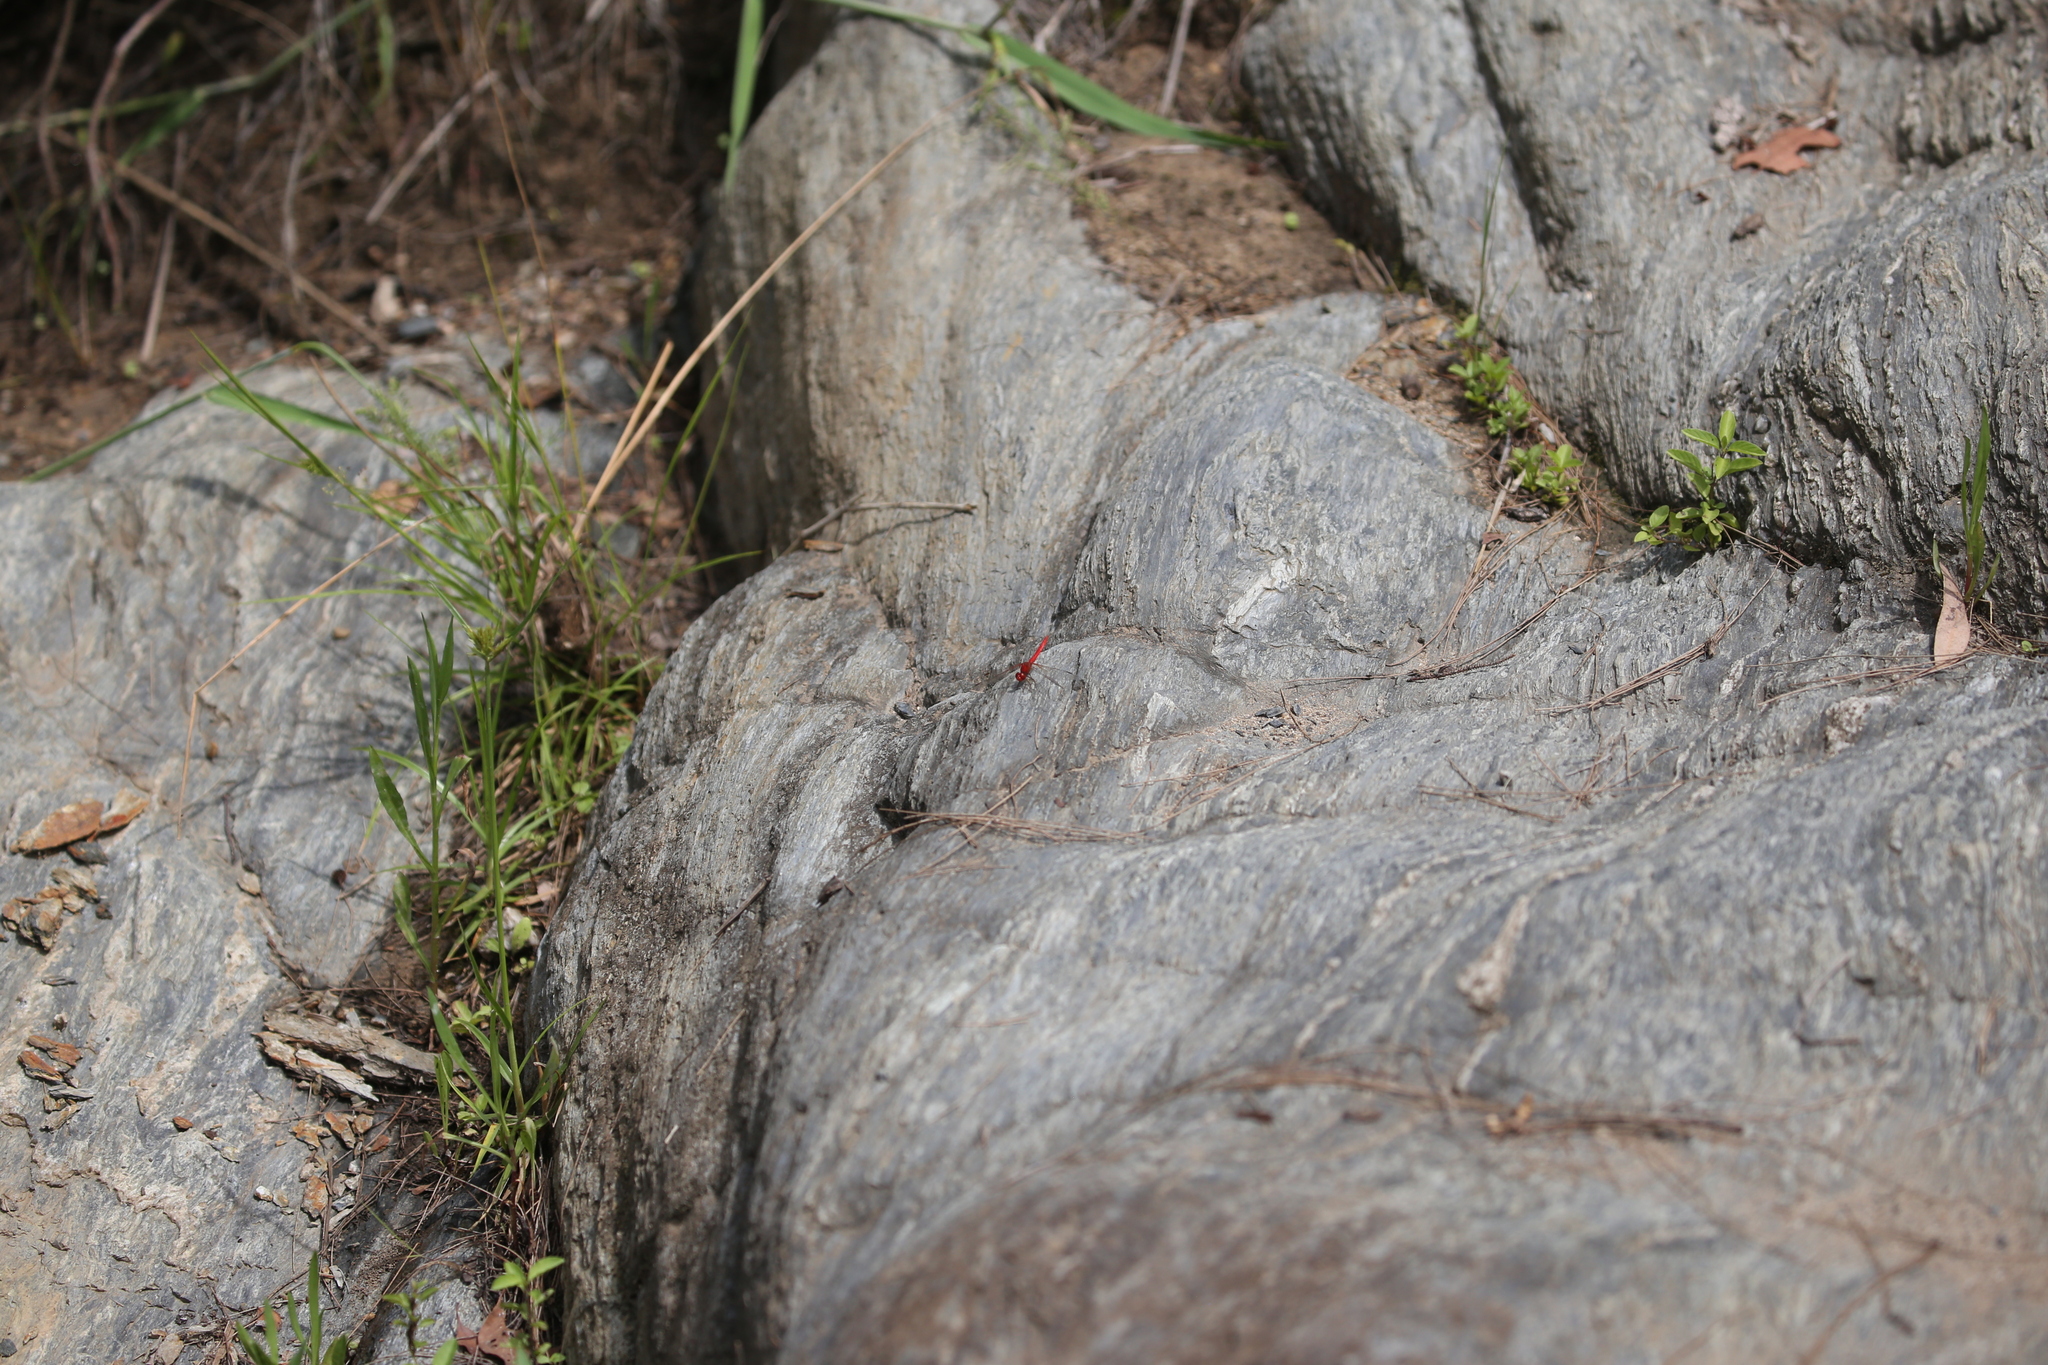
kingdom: Animalia
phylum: Arthropoda
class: Insecta
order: Odonata
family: Libellulidae
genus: Diplacodes
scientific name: Diplacodes haematodes
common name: Scarlet percher
